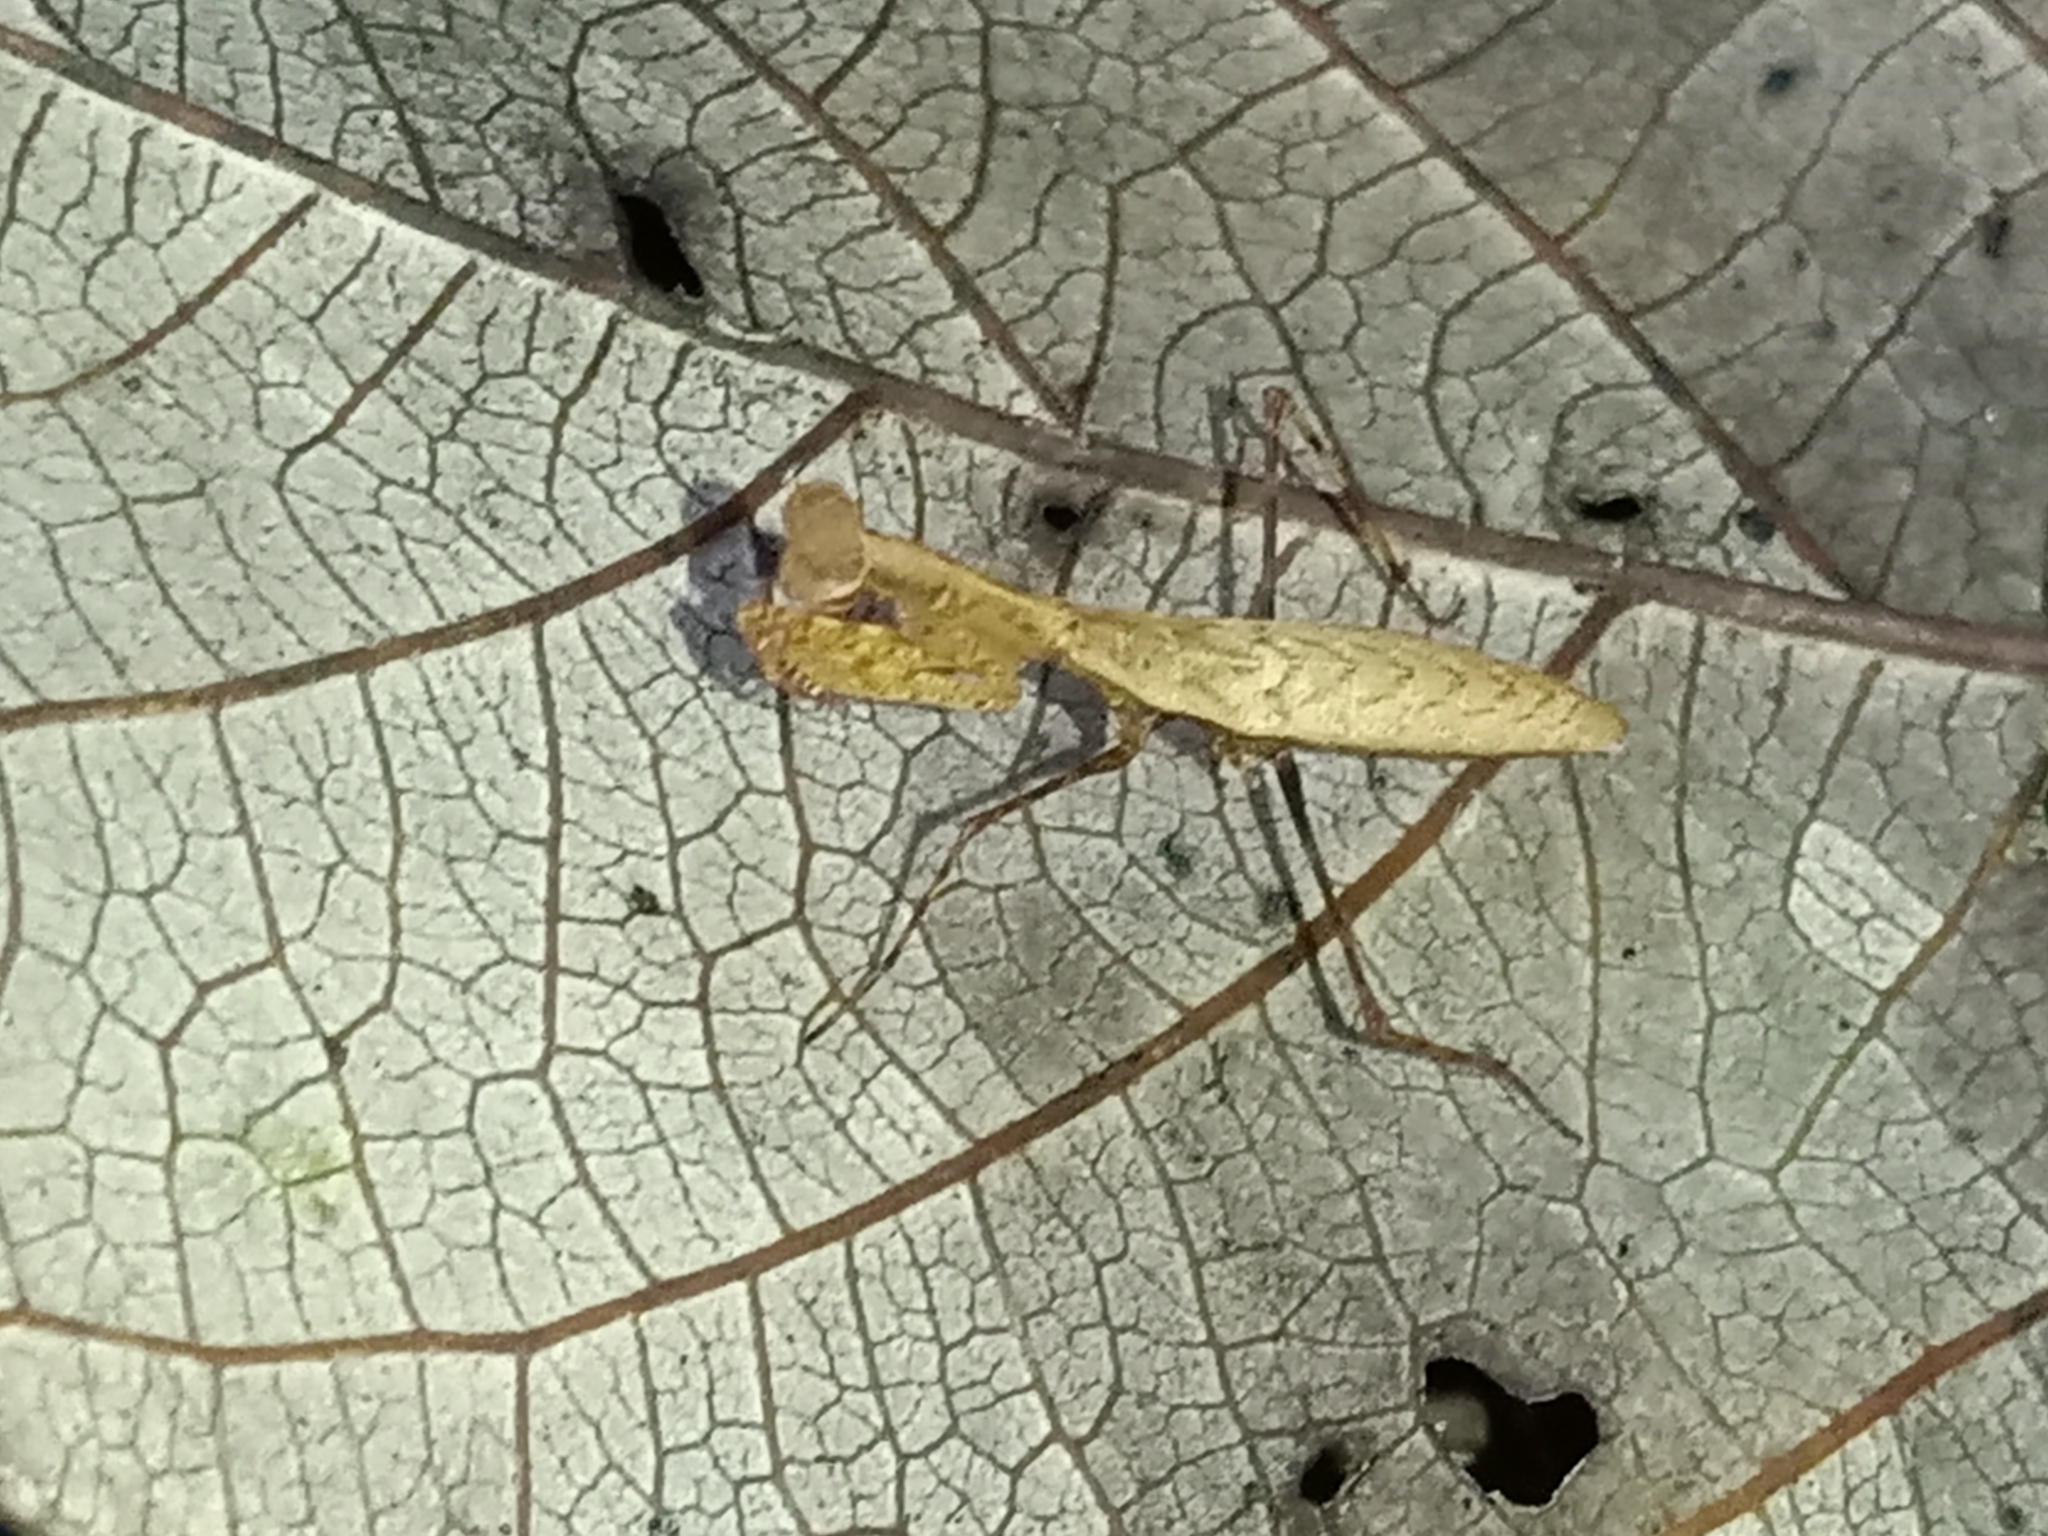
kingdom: Animalia
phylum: Arthropoda
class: Insecta
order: Mantodea
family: Thespidae
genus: Leptomiopteryx
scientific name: Leptomiopteryx dispar
